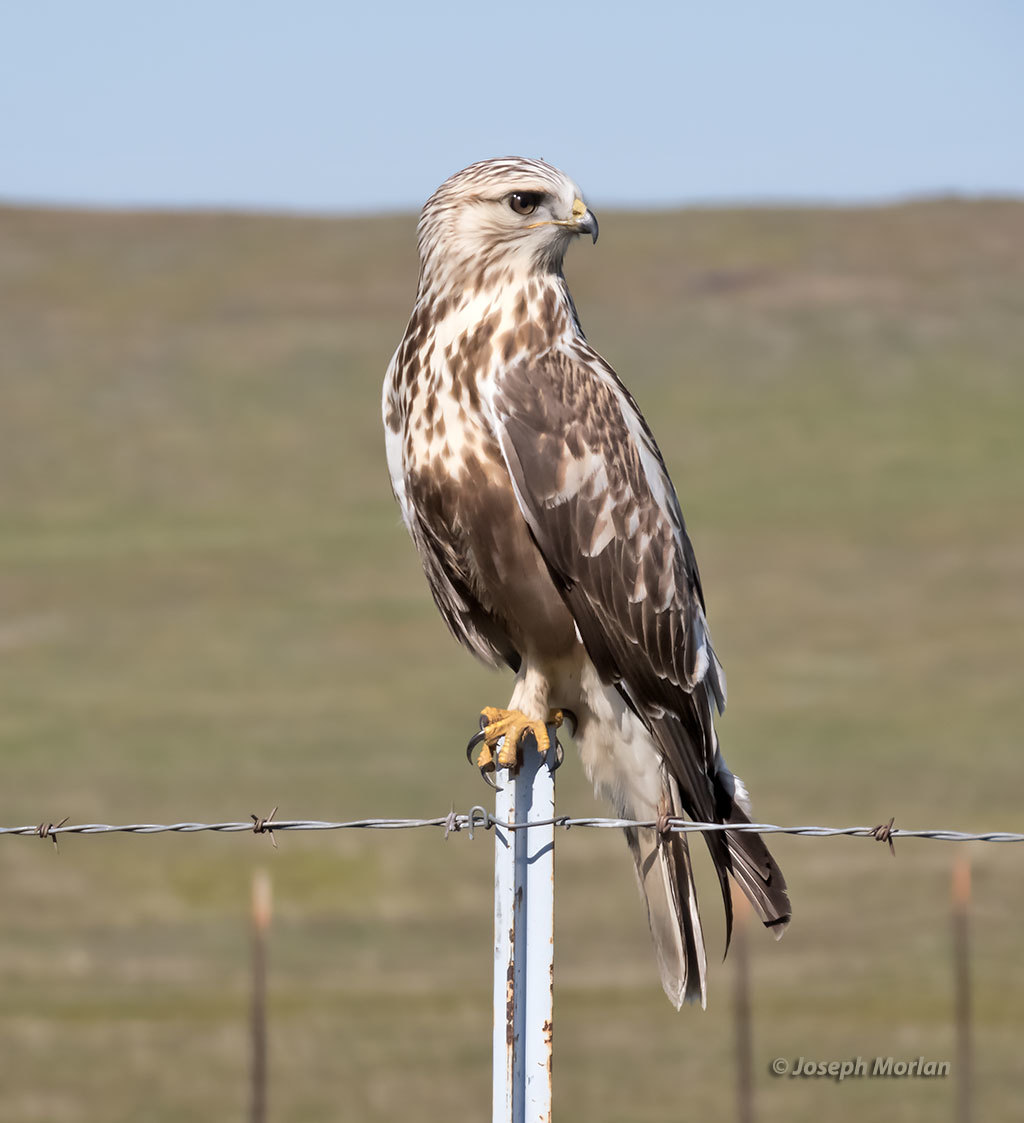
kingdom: Animalia
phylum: Chordata
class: Aves
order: Accipitriformes
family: Accipitridae
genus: Buteo
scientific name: Buteo lagopus
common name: Rough-legged buzzard
